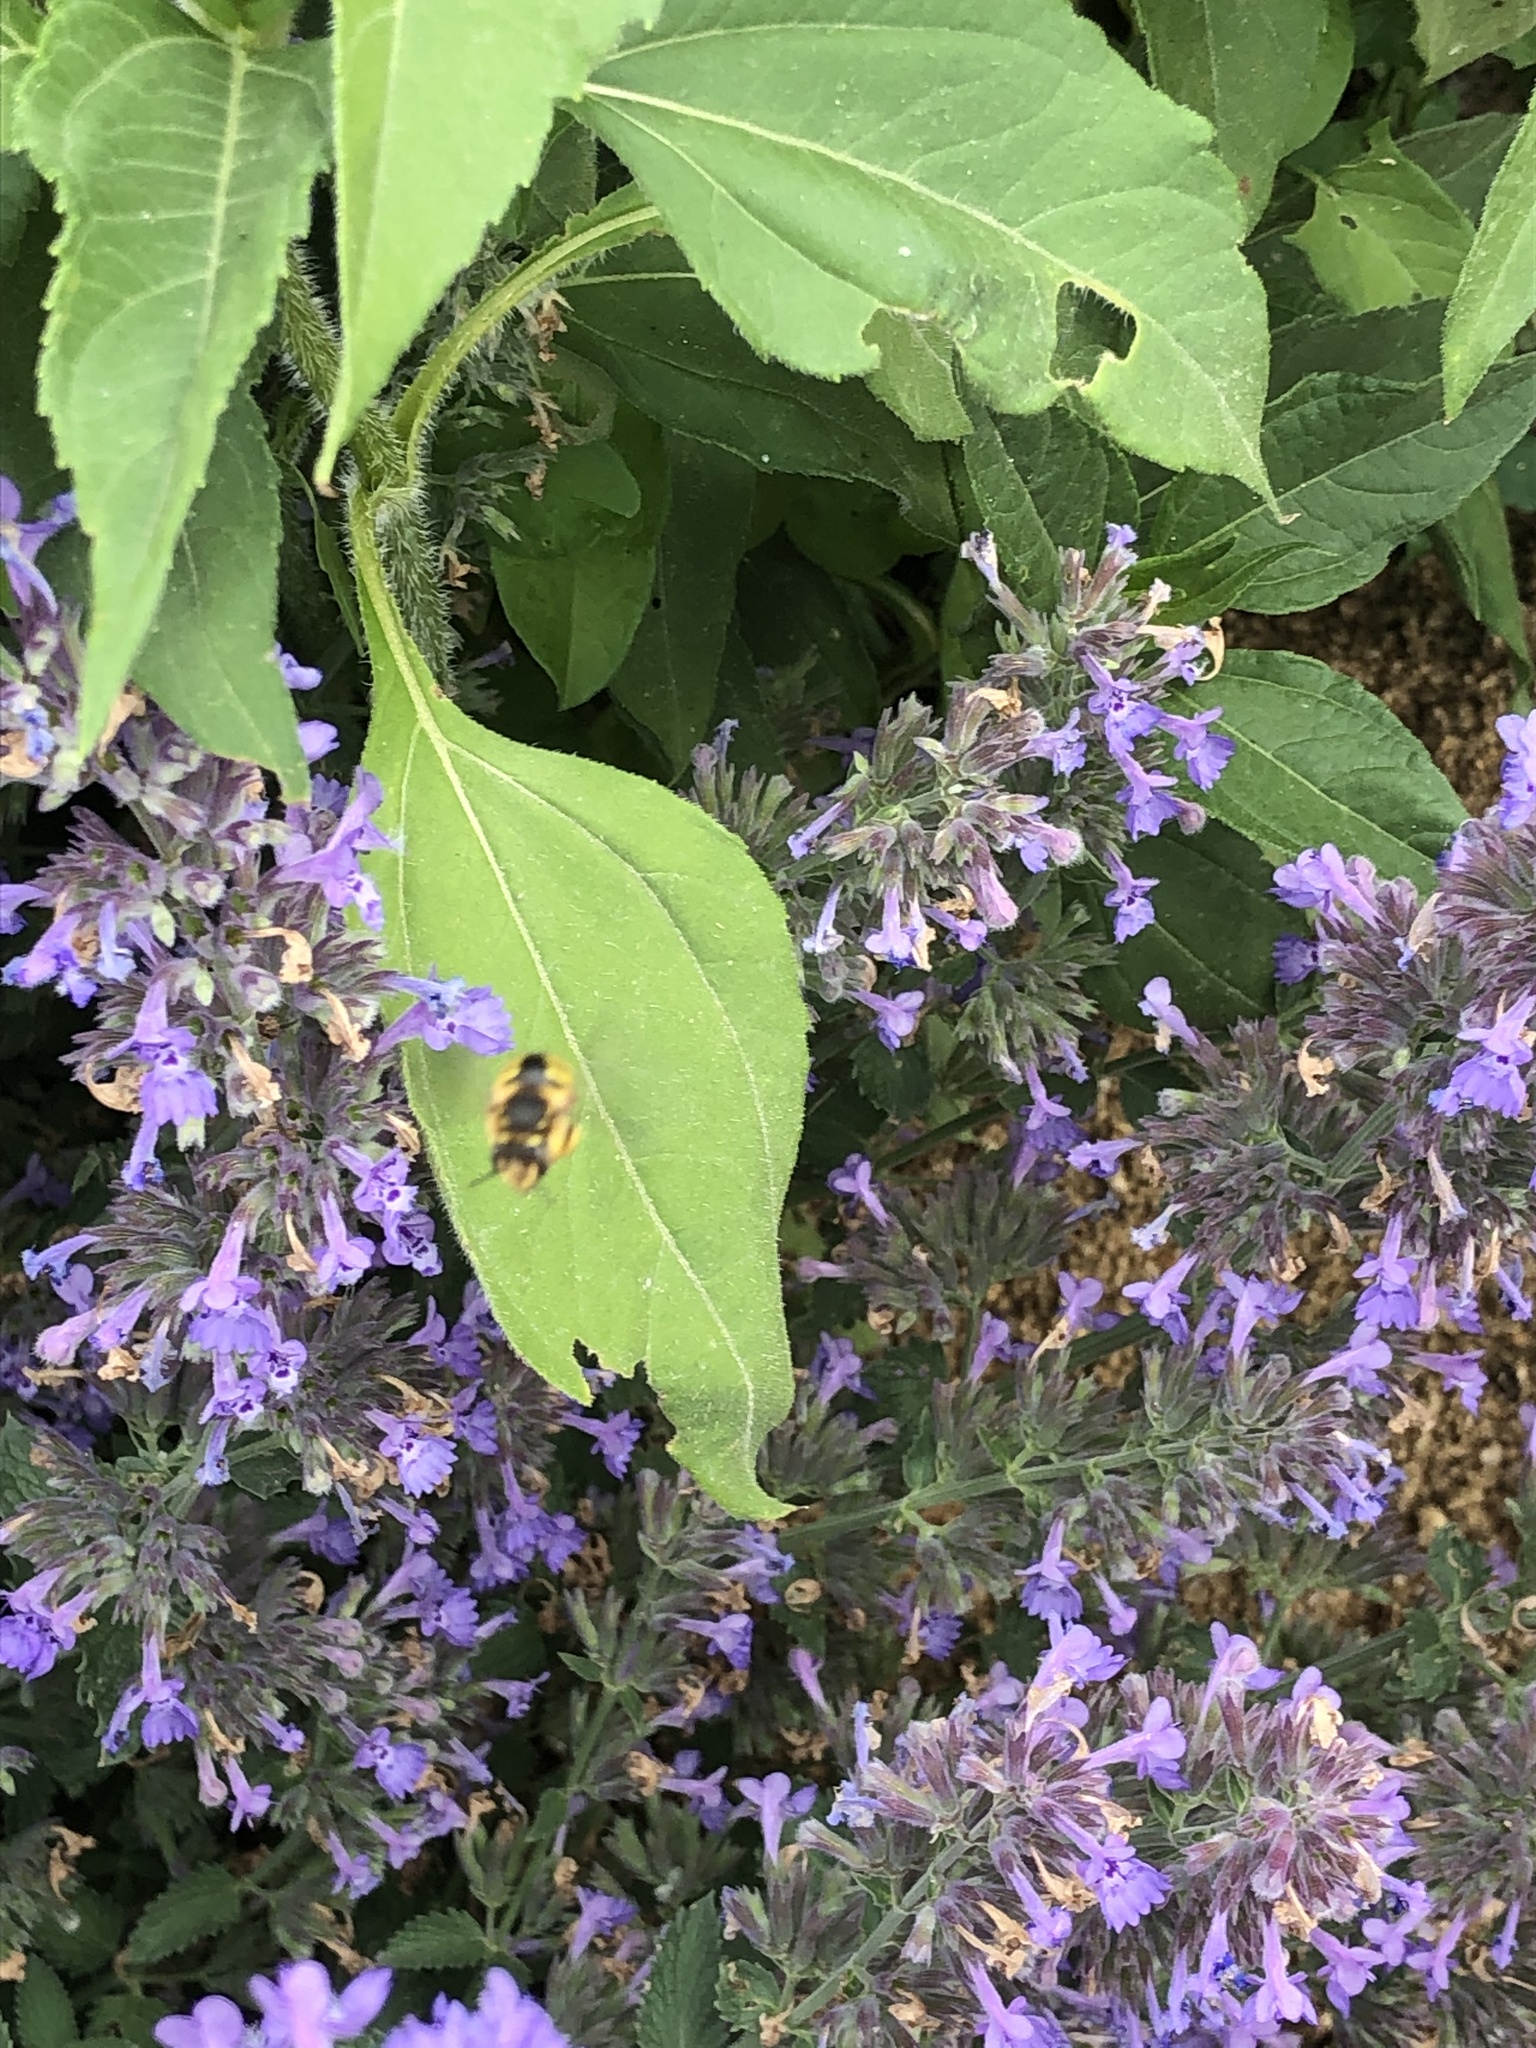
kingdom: Animalia
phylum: Arthropoda
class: Insecta
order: Hymenoptera
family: Megachilidae
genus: Anthidium
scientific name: Anthidium manicatum
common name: Wool carder bee
